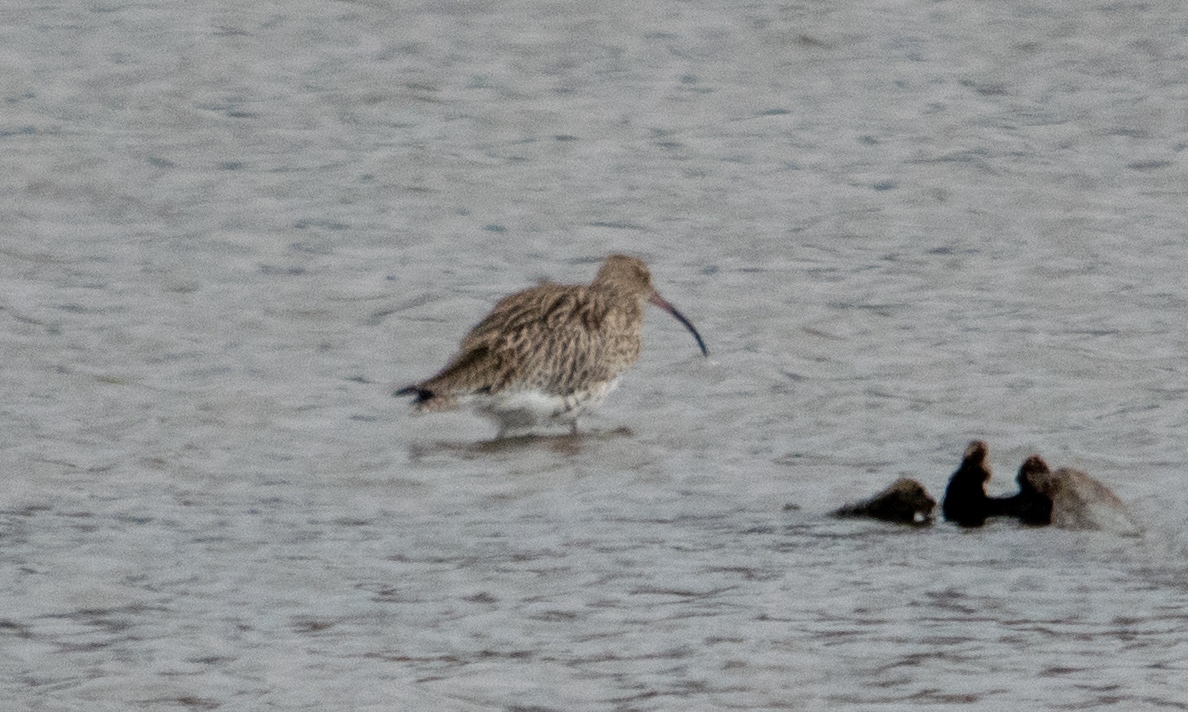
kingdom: Animalia
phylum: Chordata
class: Aves
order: Charadriiformes
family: Scolopacidae
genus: Numenius
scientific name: Numenius arquata
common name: Eurasian curlew
